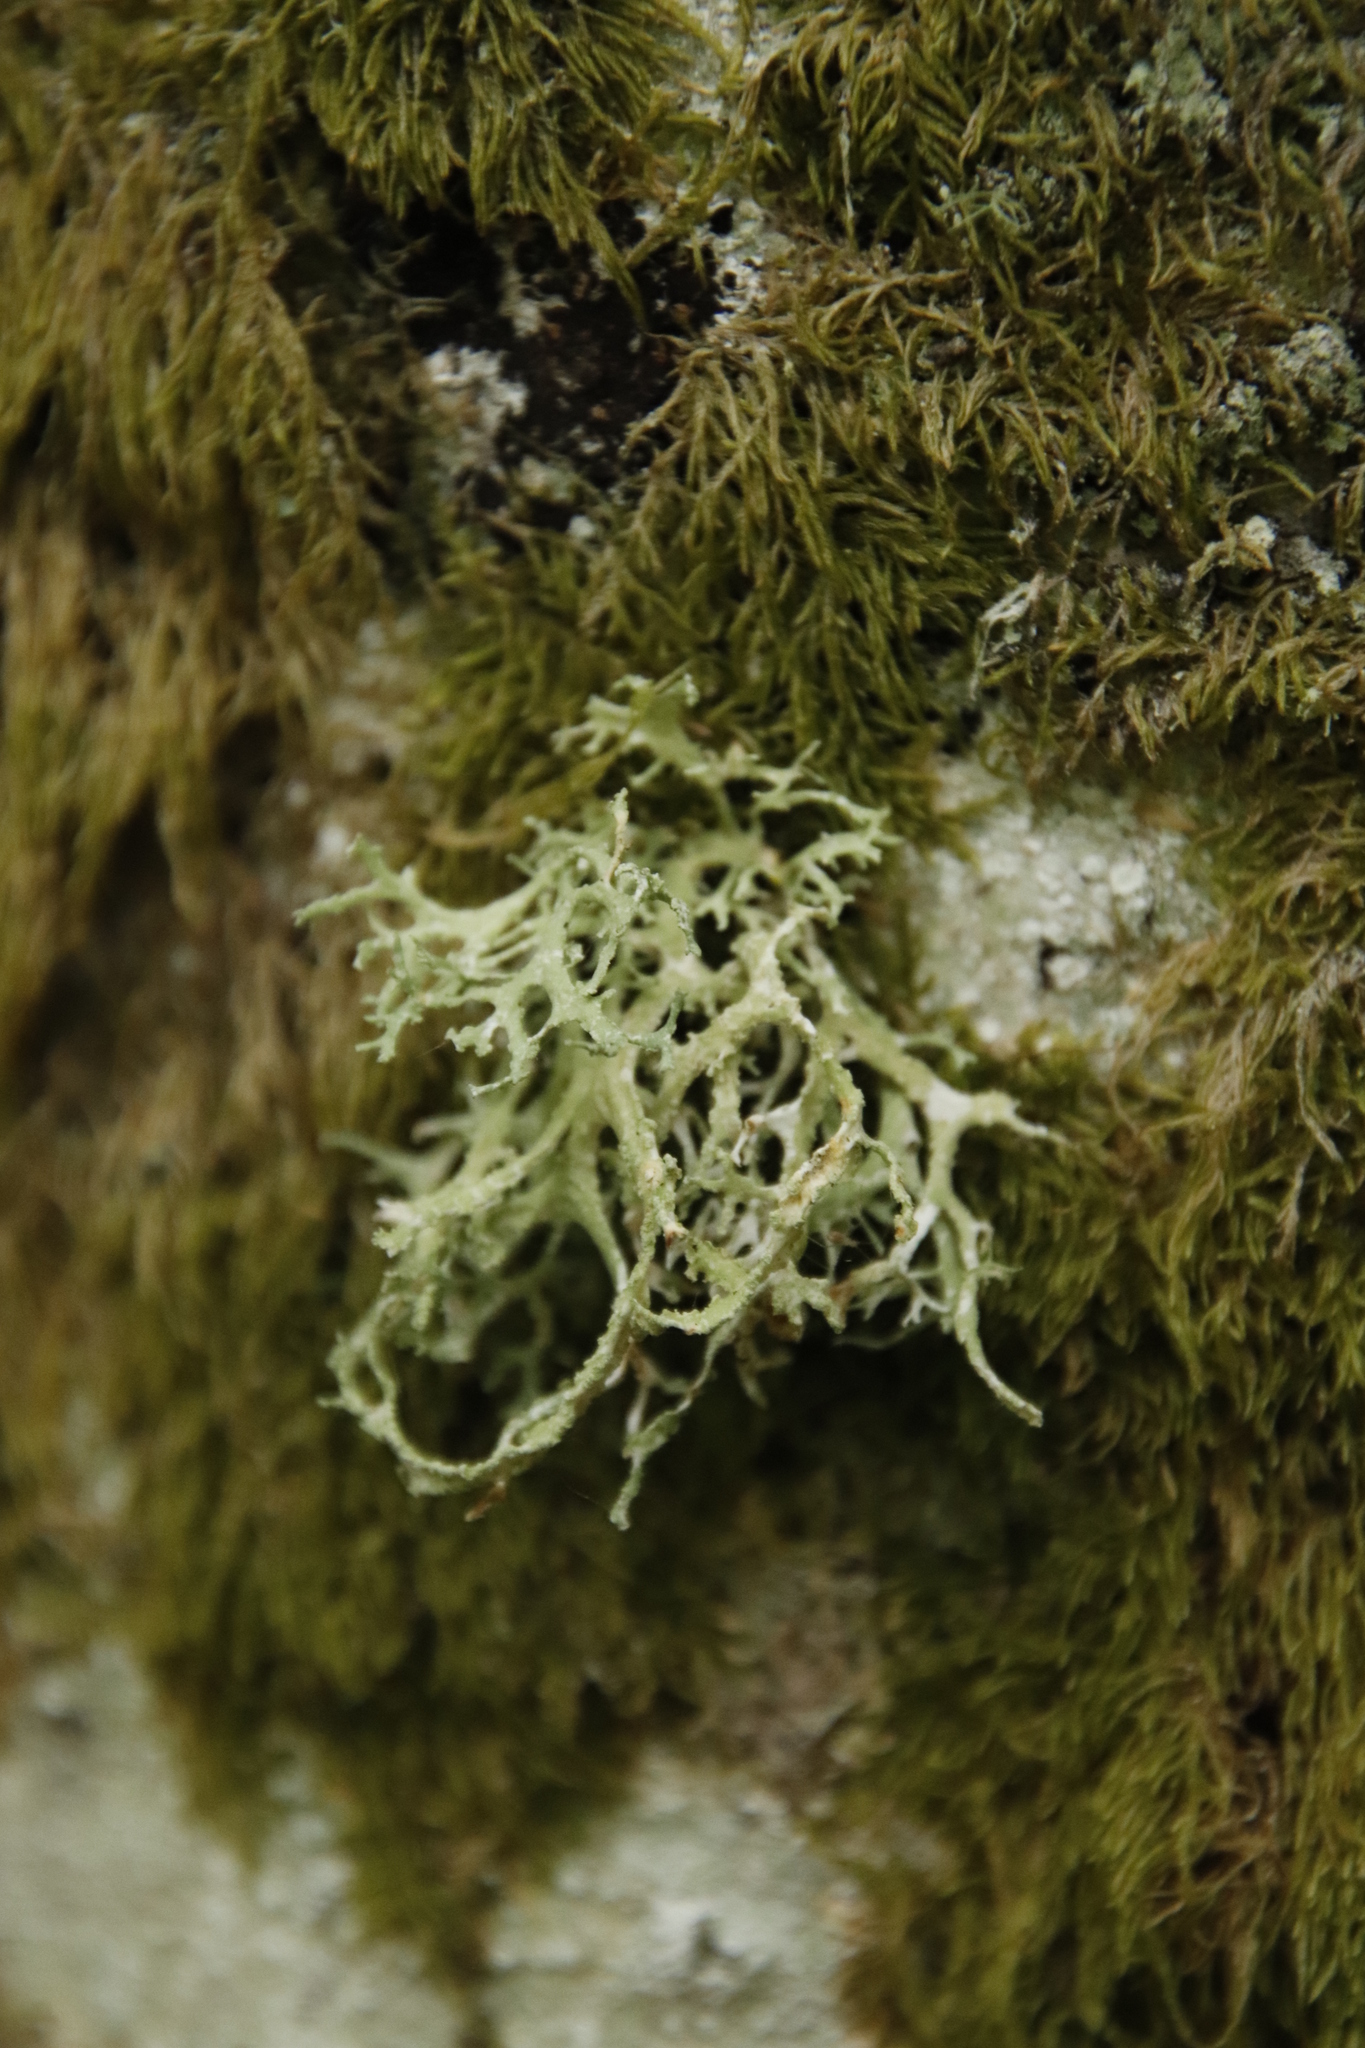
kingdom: Fungi
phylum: Ascomycota
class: Lecanoromycetes
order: Lecanorales
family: Parmeliaceae
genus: Evernia
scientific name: Evernia prunastri
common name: Oak moss
